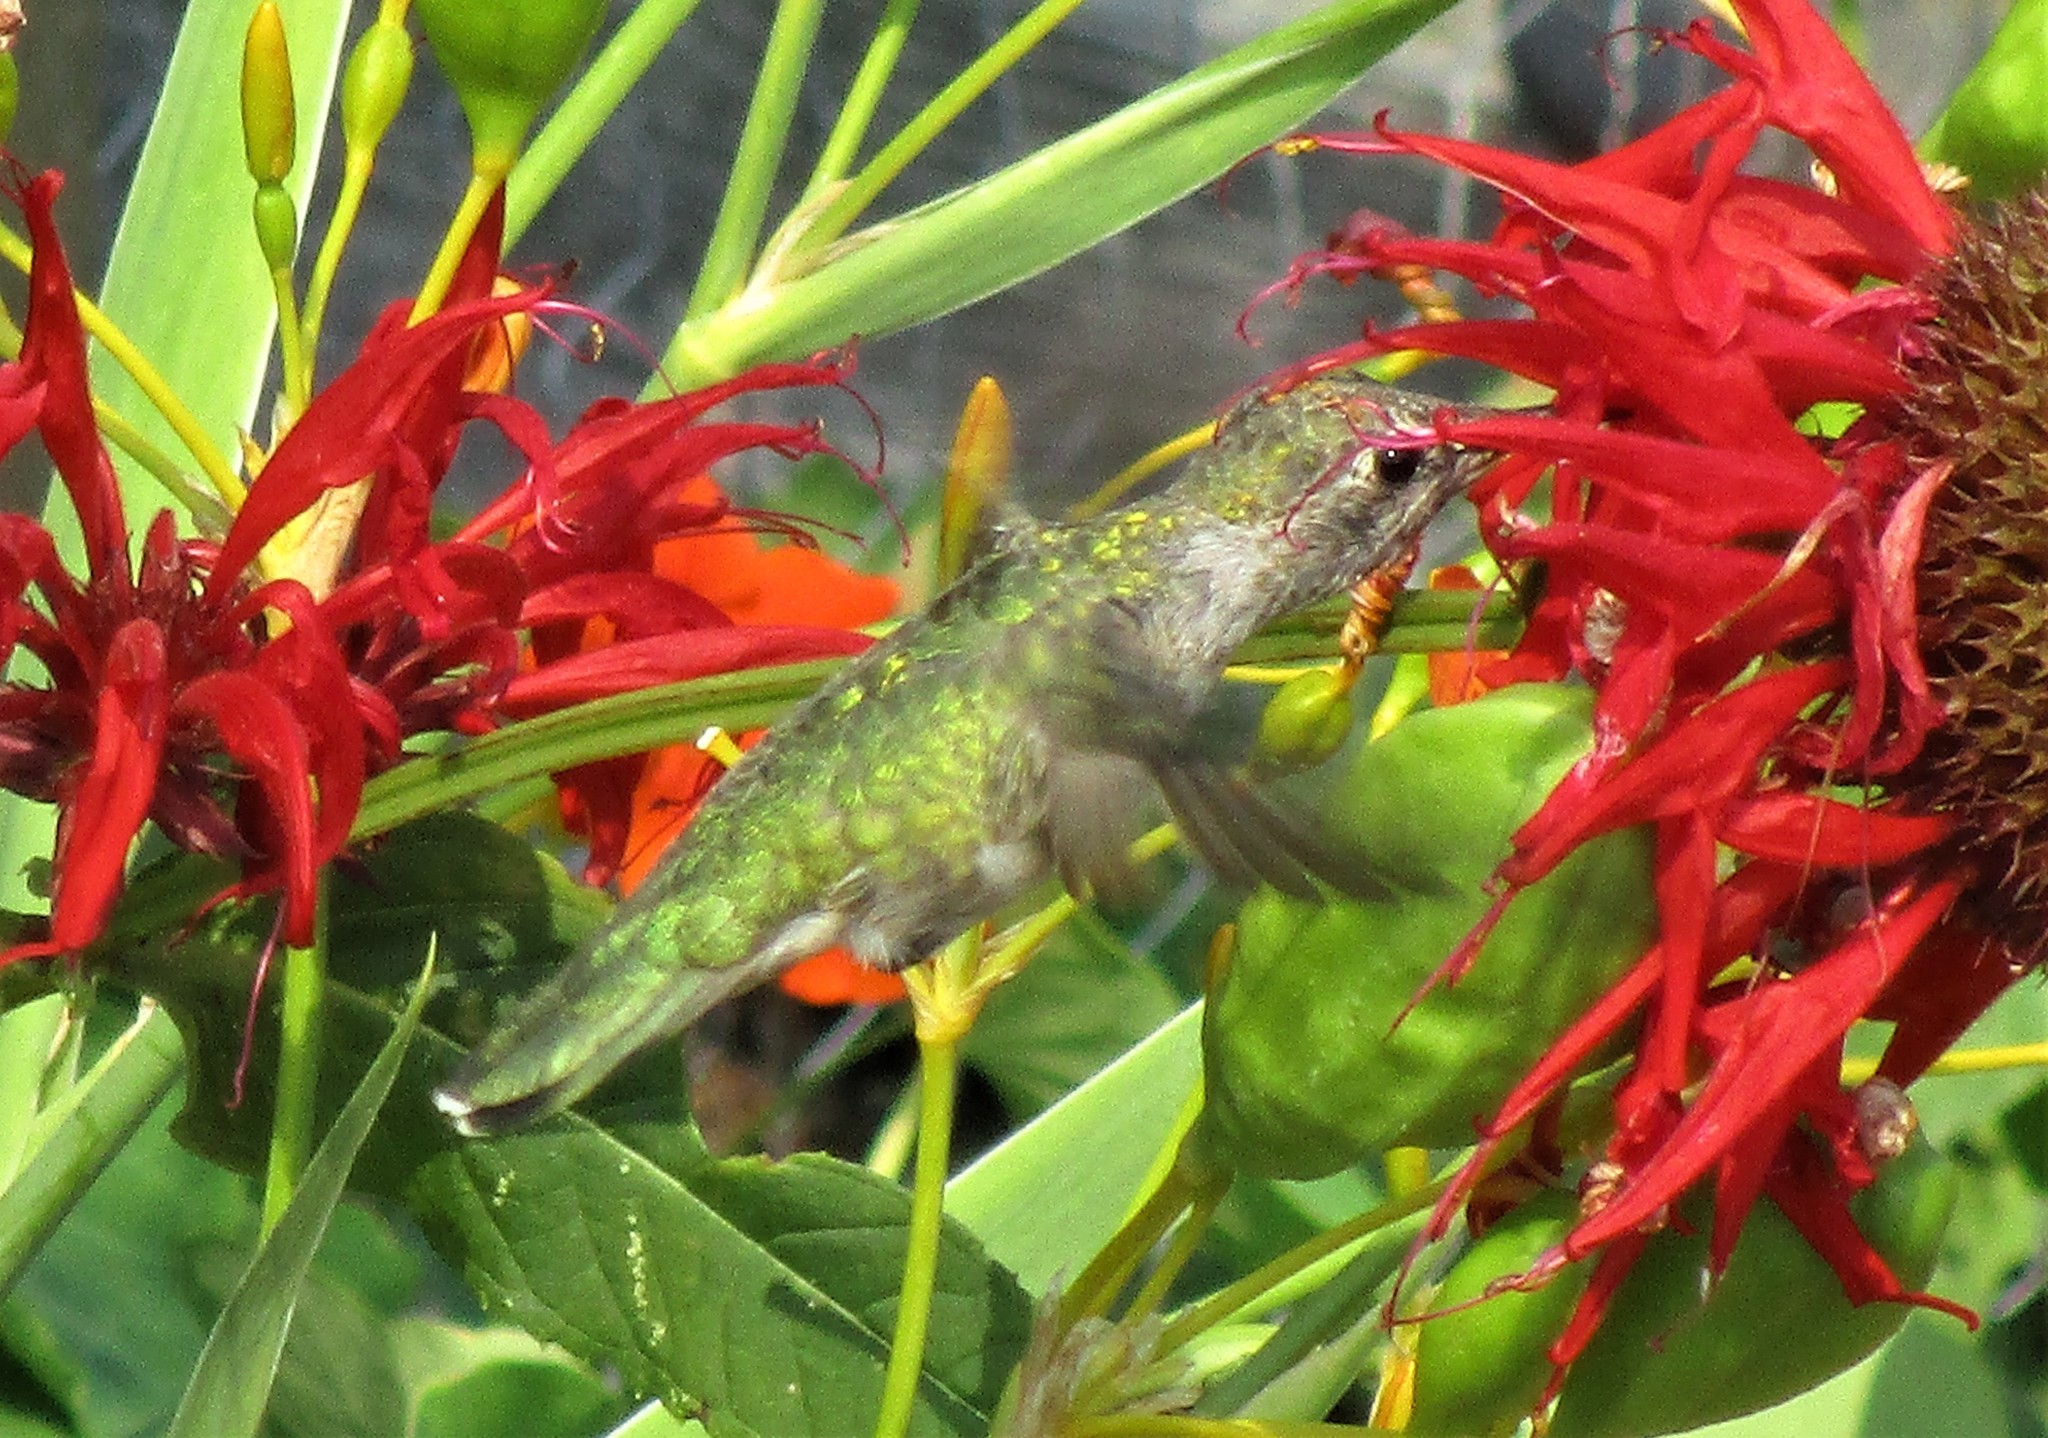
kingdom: Animalia
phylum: Chordata
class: Aves
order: Apodiformes
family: Trochilidae
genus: Calypte
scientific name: Calypte anna
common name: Anna's hummingbird
